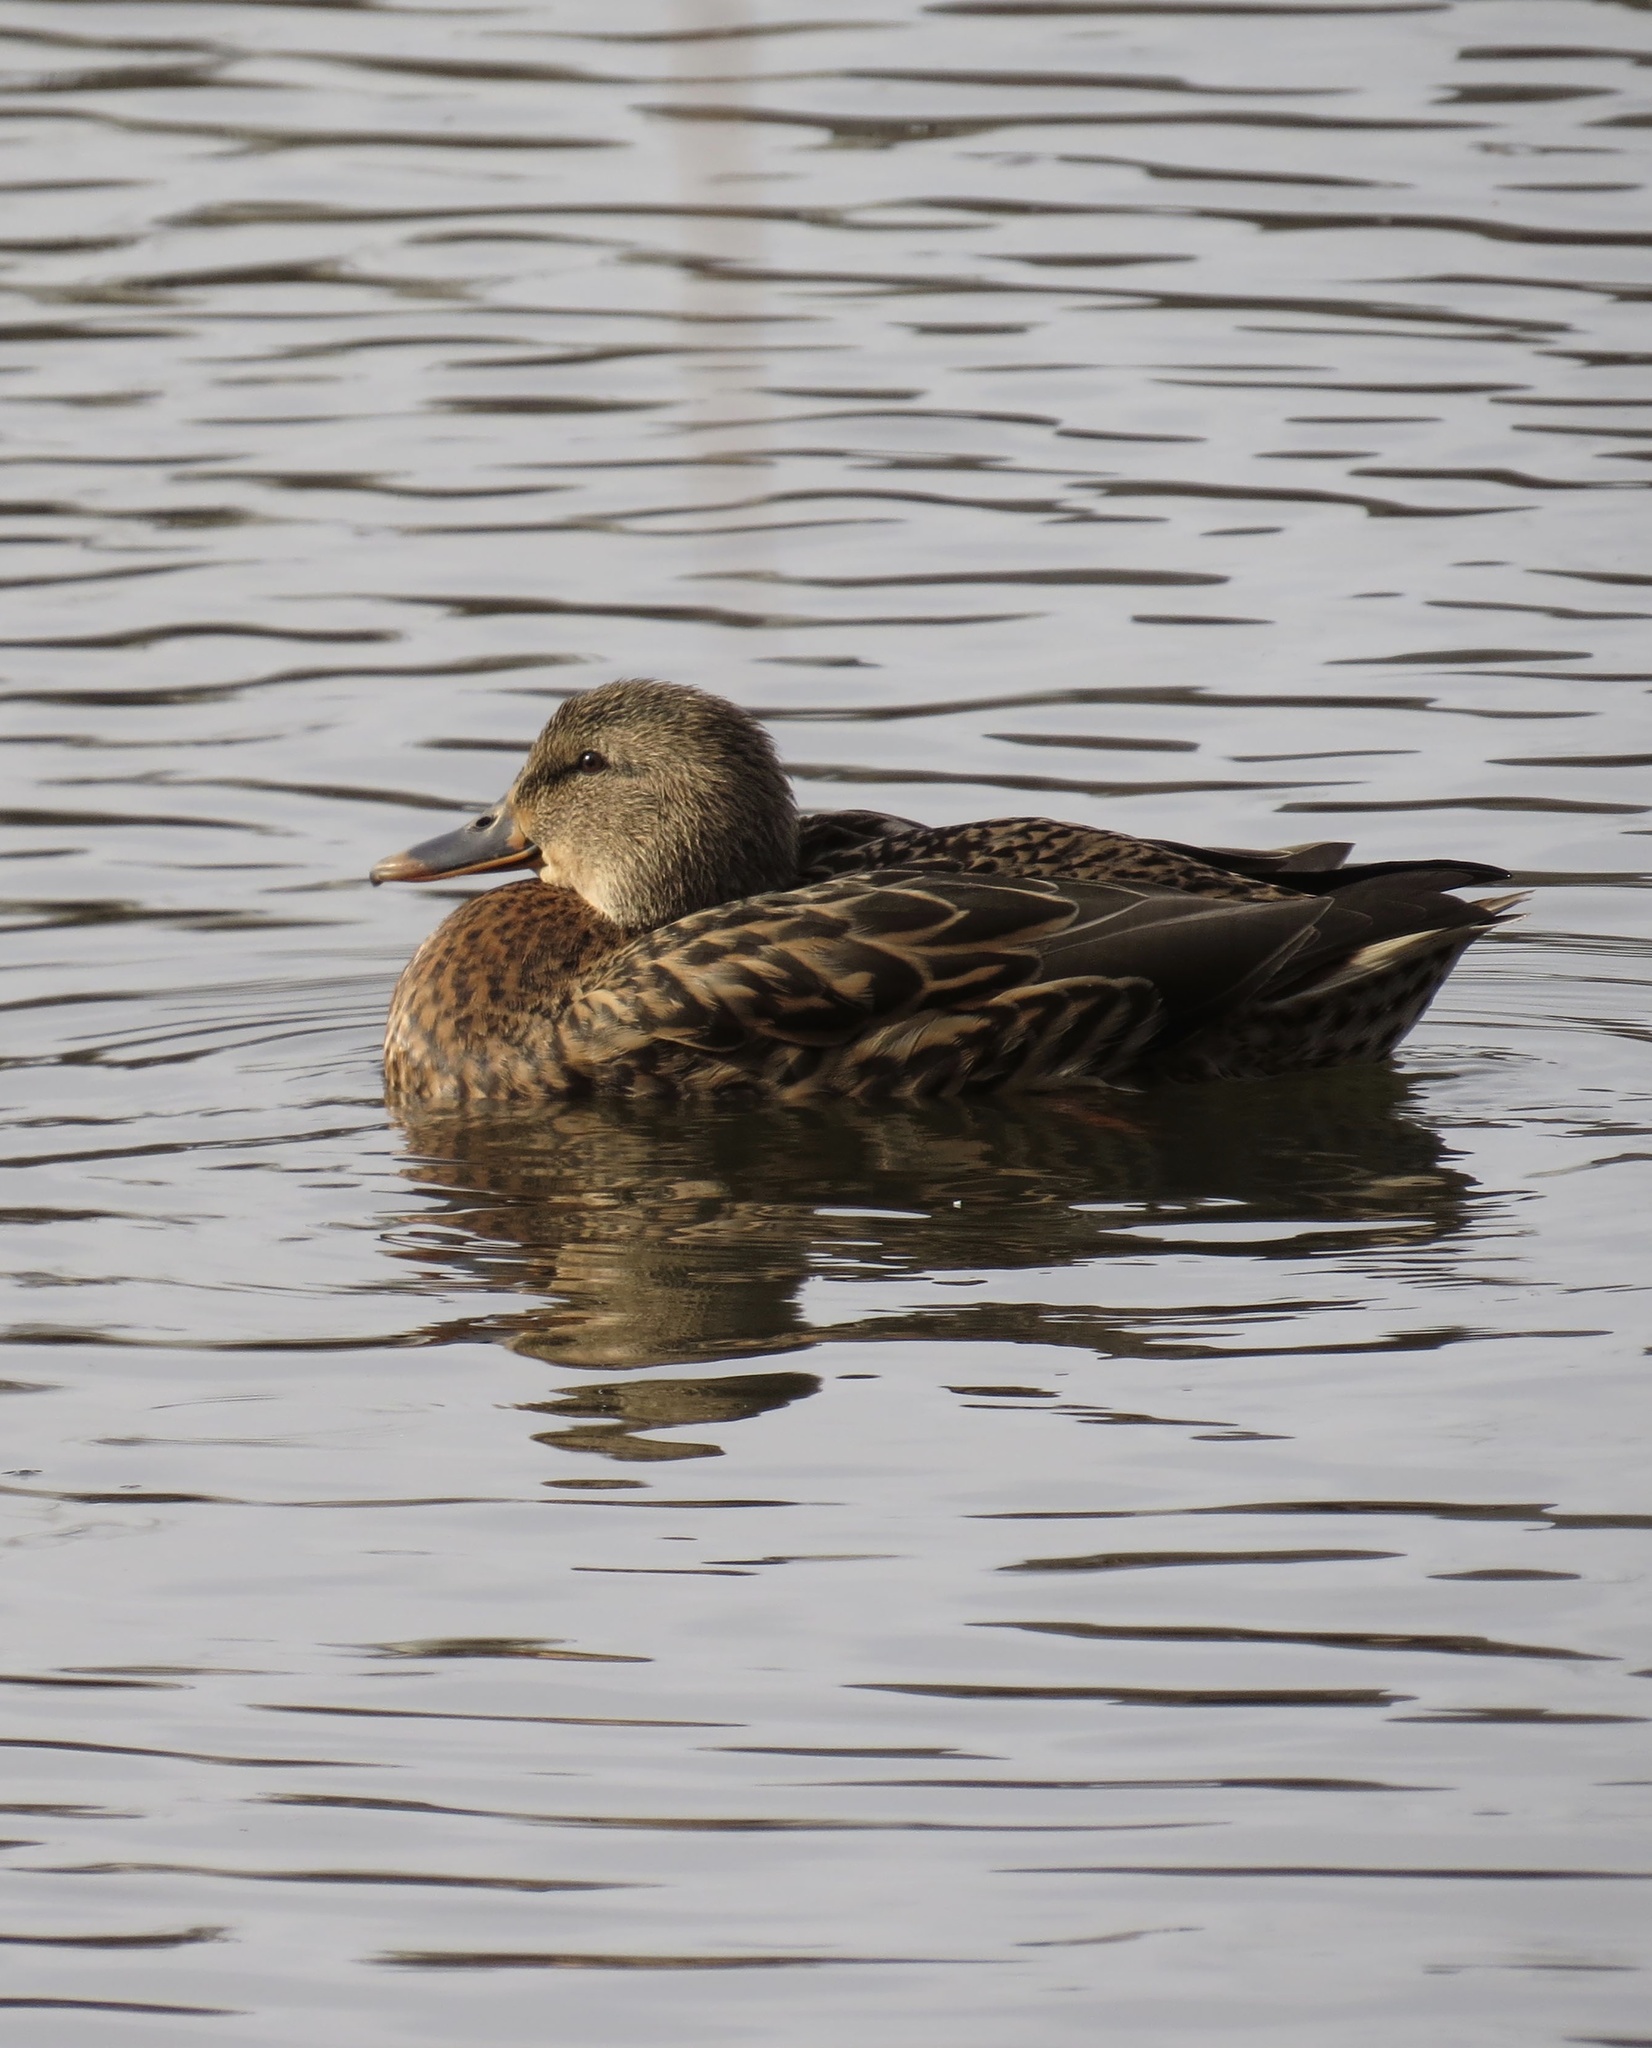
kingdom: Animalia
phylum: Chordata
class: Aves
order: Anseriformes
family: Anatidae
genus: Anas
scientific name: Anas platyrhynchos
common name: Mallard
